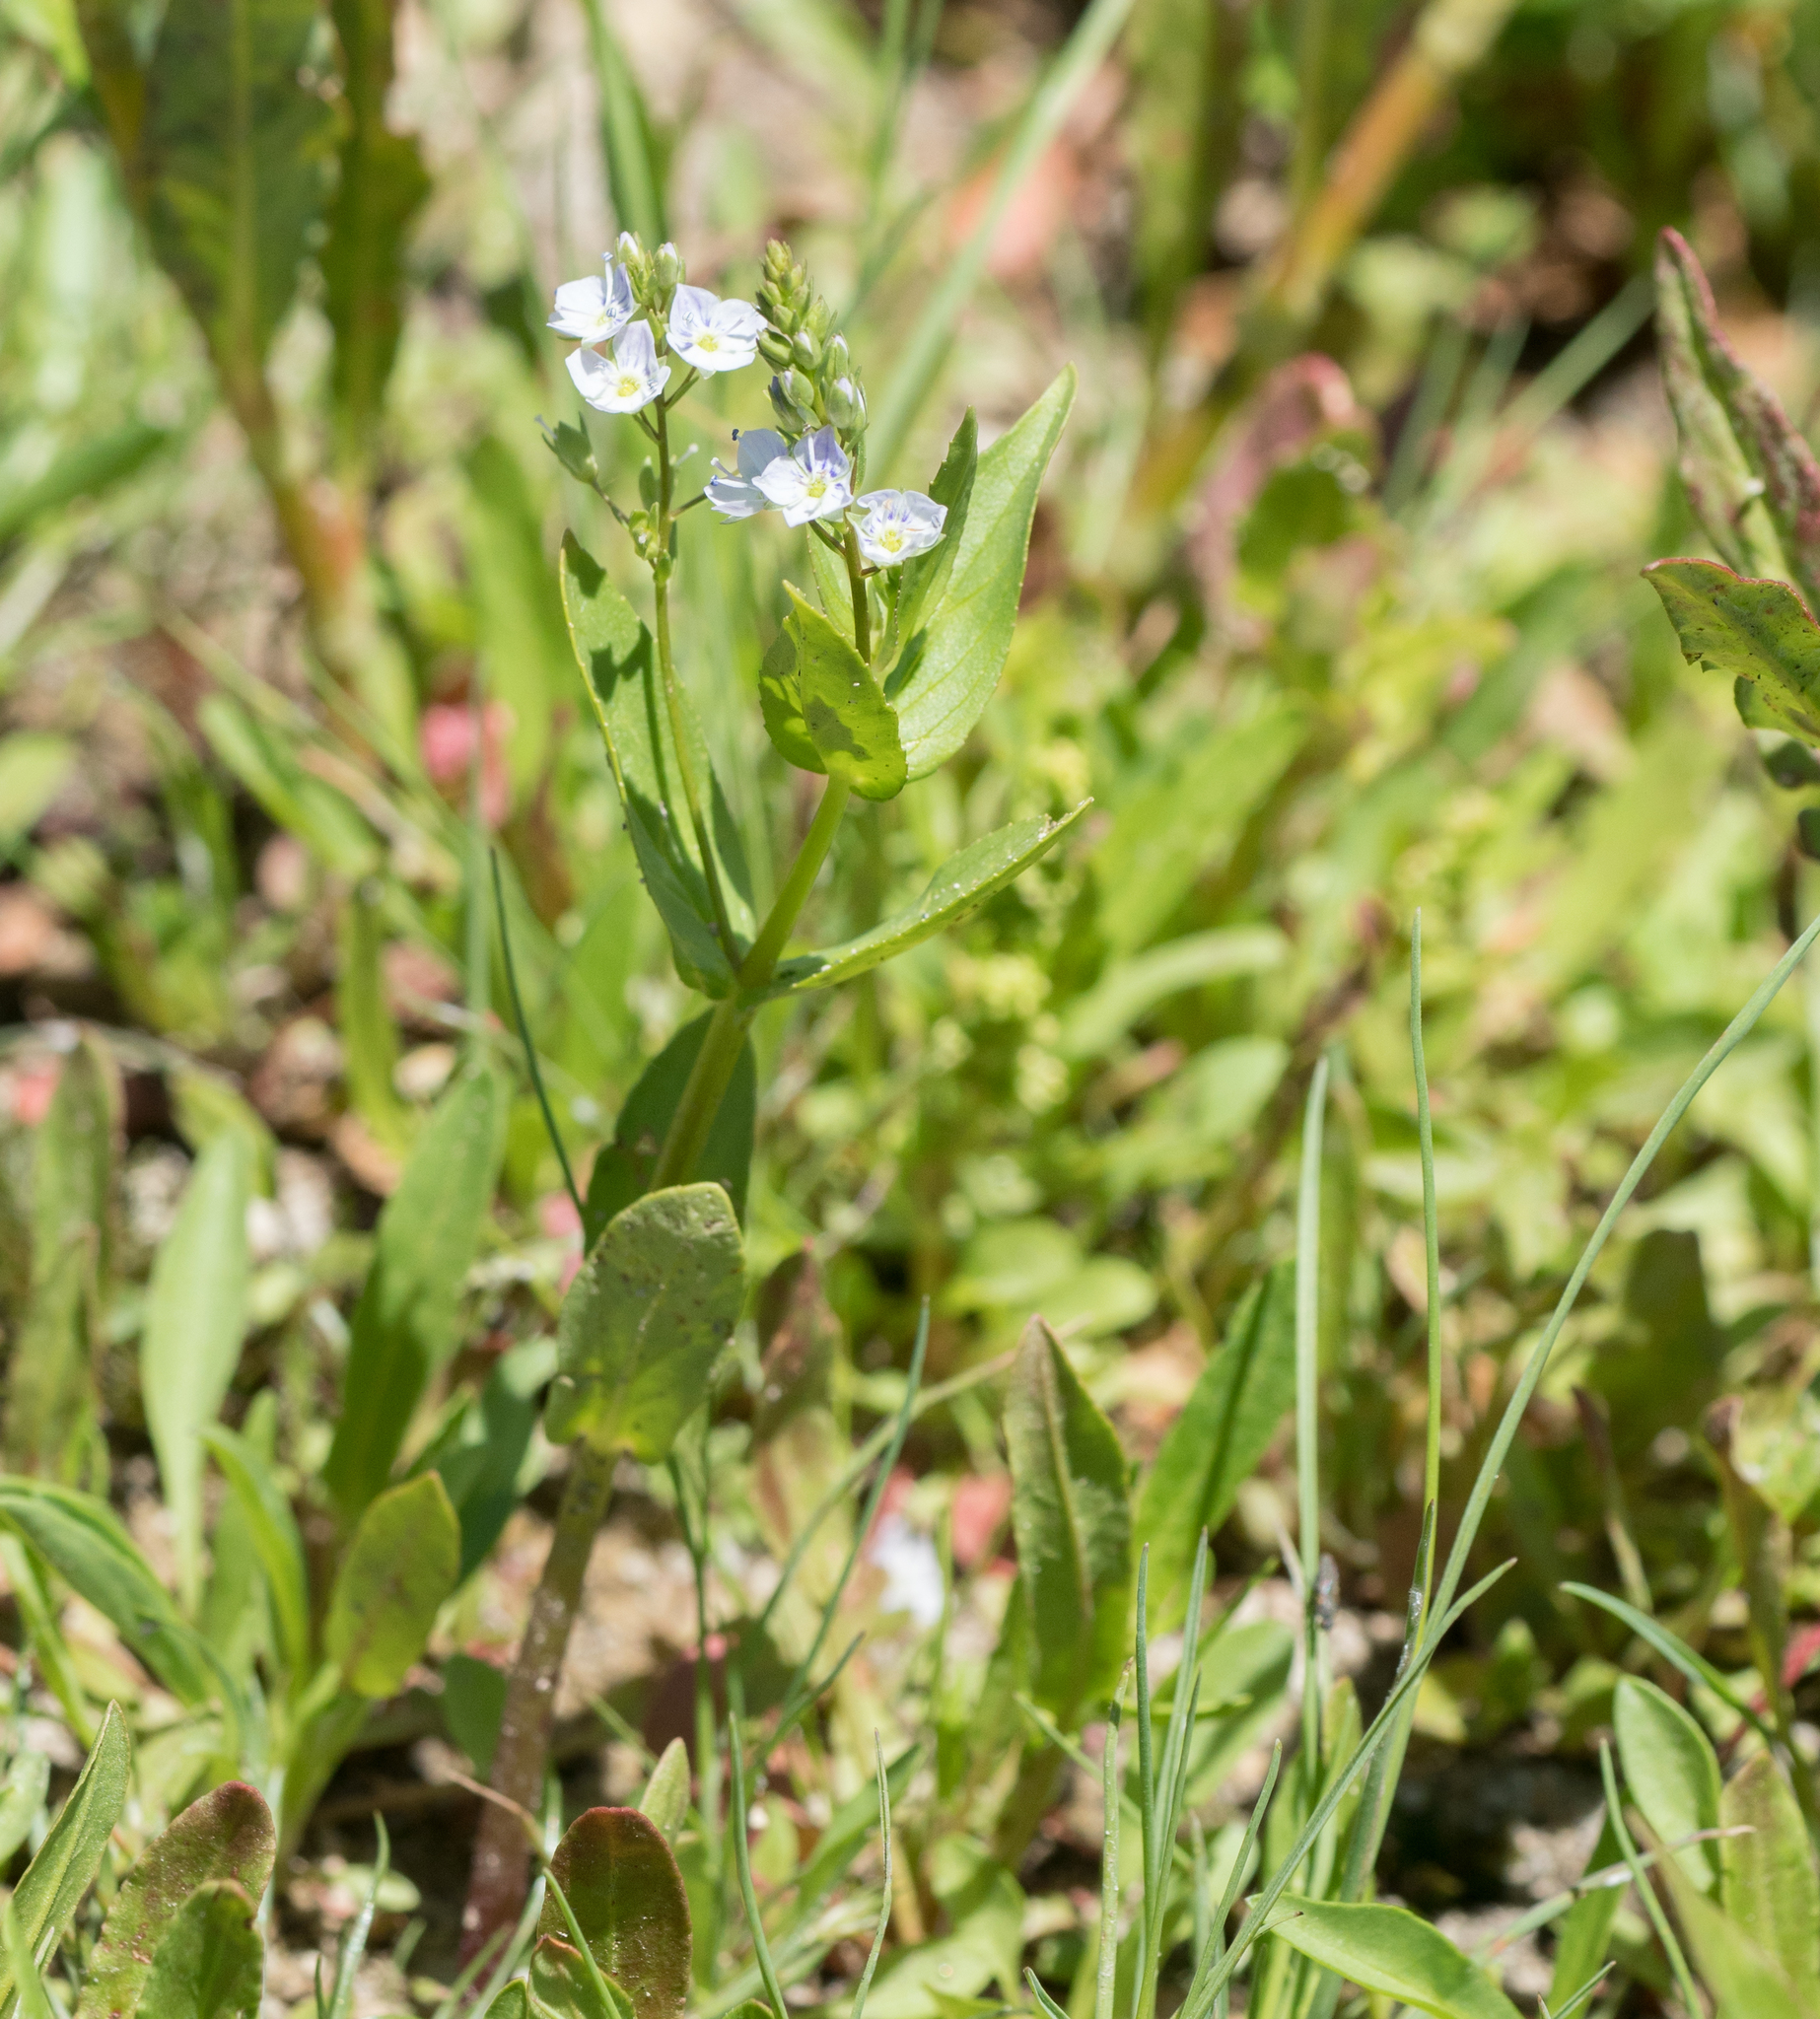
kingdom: Plantae
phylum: Tracheophyta
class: Magnoliopsida
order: Lamiales
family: Plantaginaceae
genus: Veronica
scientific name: Veronica anagallis-aquatica
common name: Water speedwell
